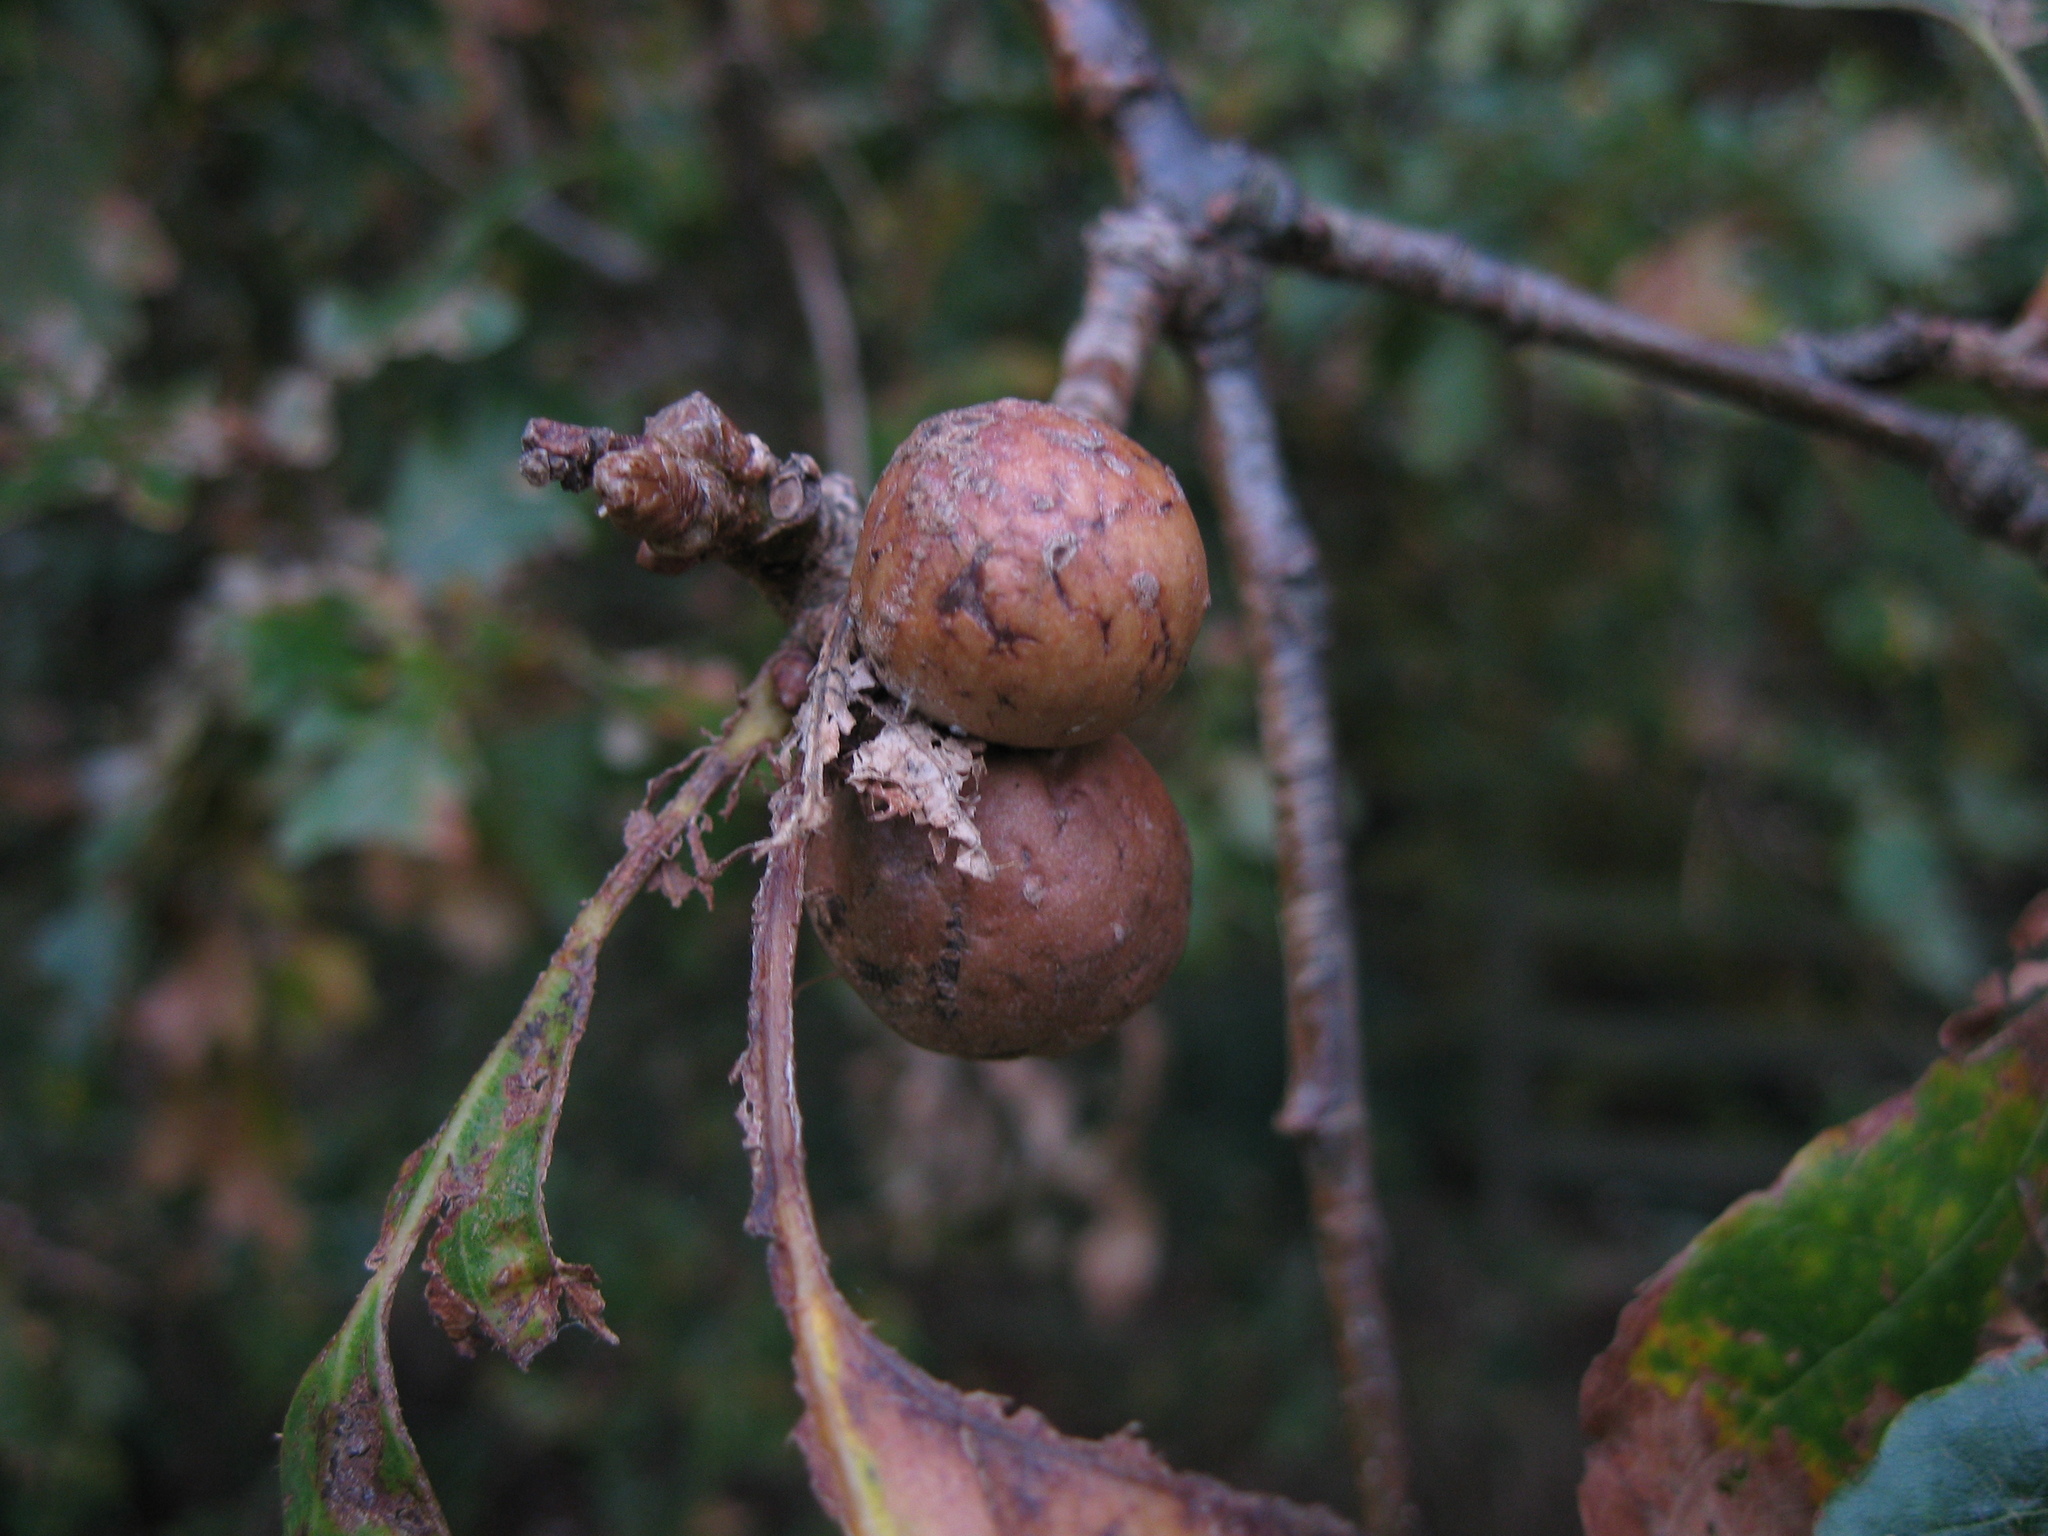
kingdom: Animalia
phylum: Arthropoda
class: Insecta
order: Hymenoptera
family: Cynipidae
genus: Andricus
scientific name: Andricus kollari
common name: Marble gall
